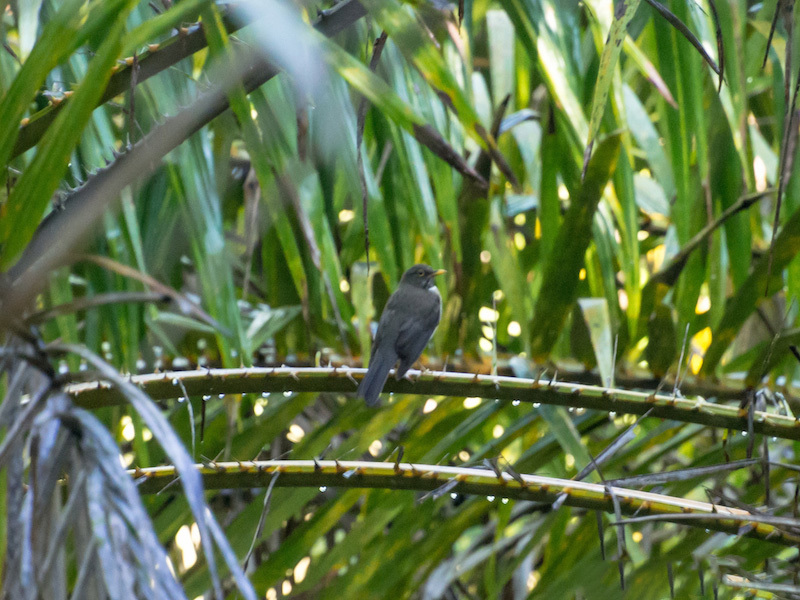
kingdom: Animalia
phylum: Chordata
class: Aves
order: Passeriformes
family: Turdidae
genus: Turdus
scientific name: Turdus assimilis
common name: White-throated thrush
